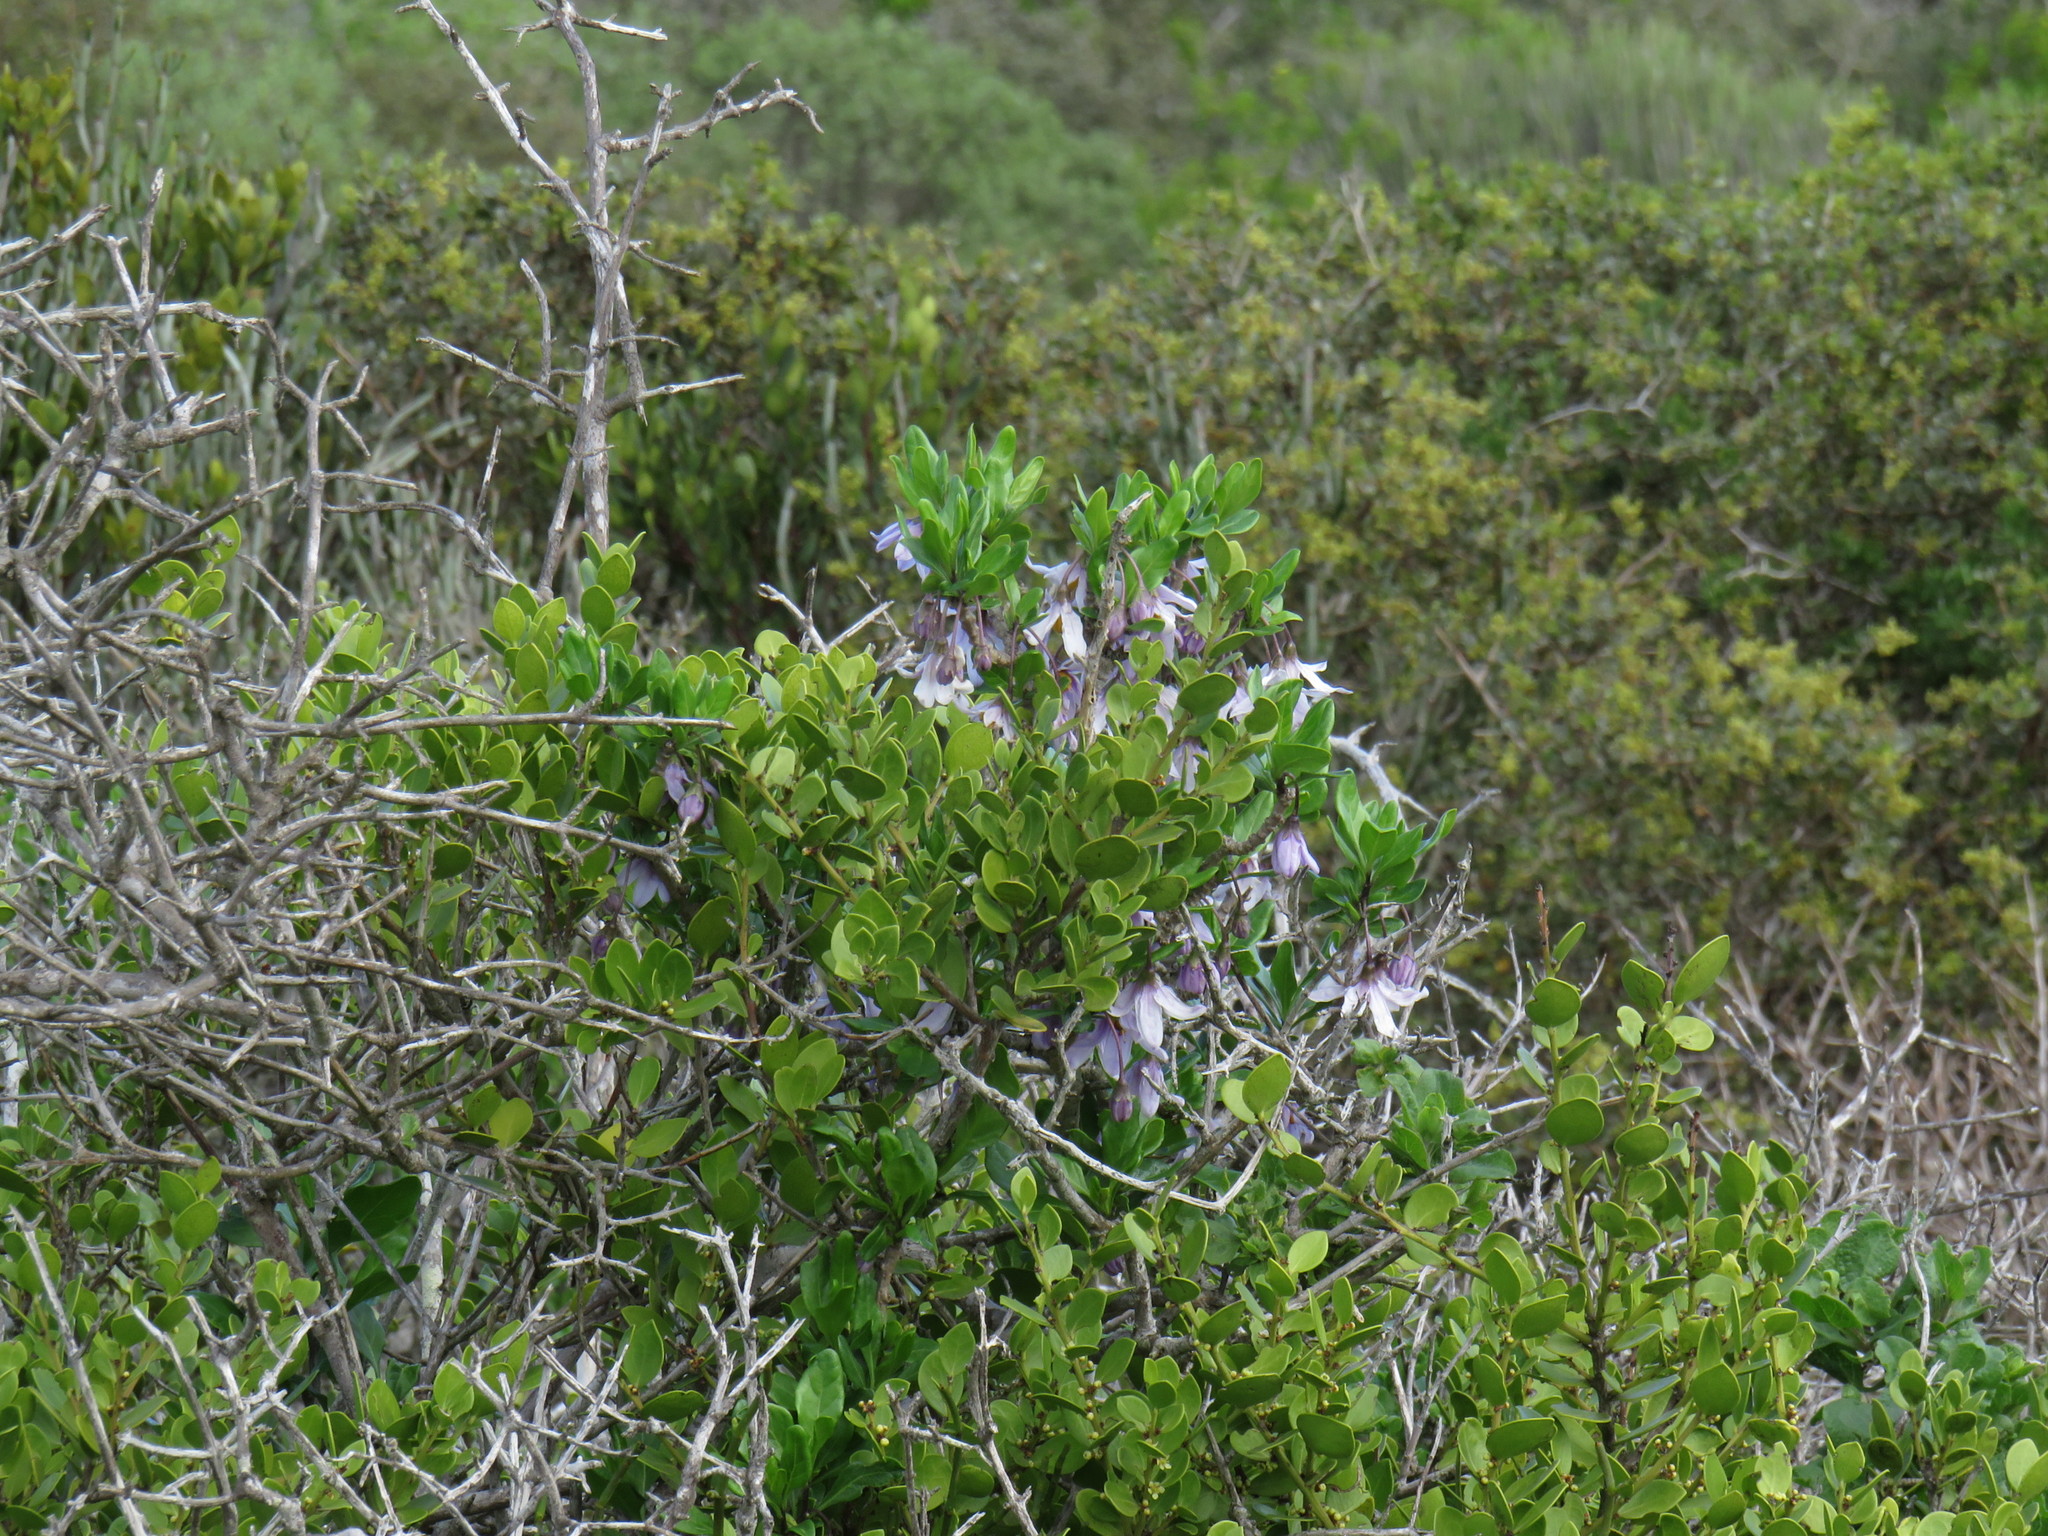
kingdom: Plantae
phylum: Tracheophyta
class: Magnoliopsida
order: Solanales
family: Solanaceae
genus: Solanum
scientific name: Solanum guineense
